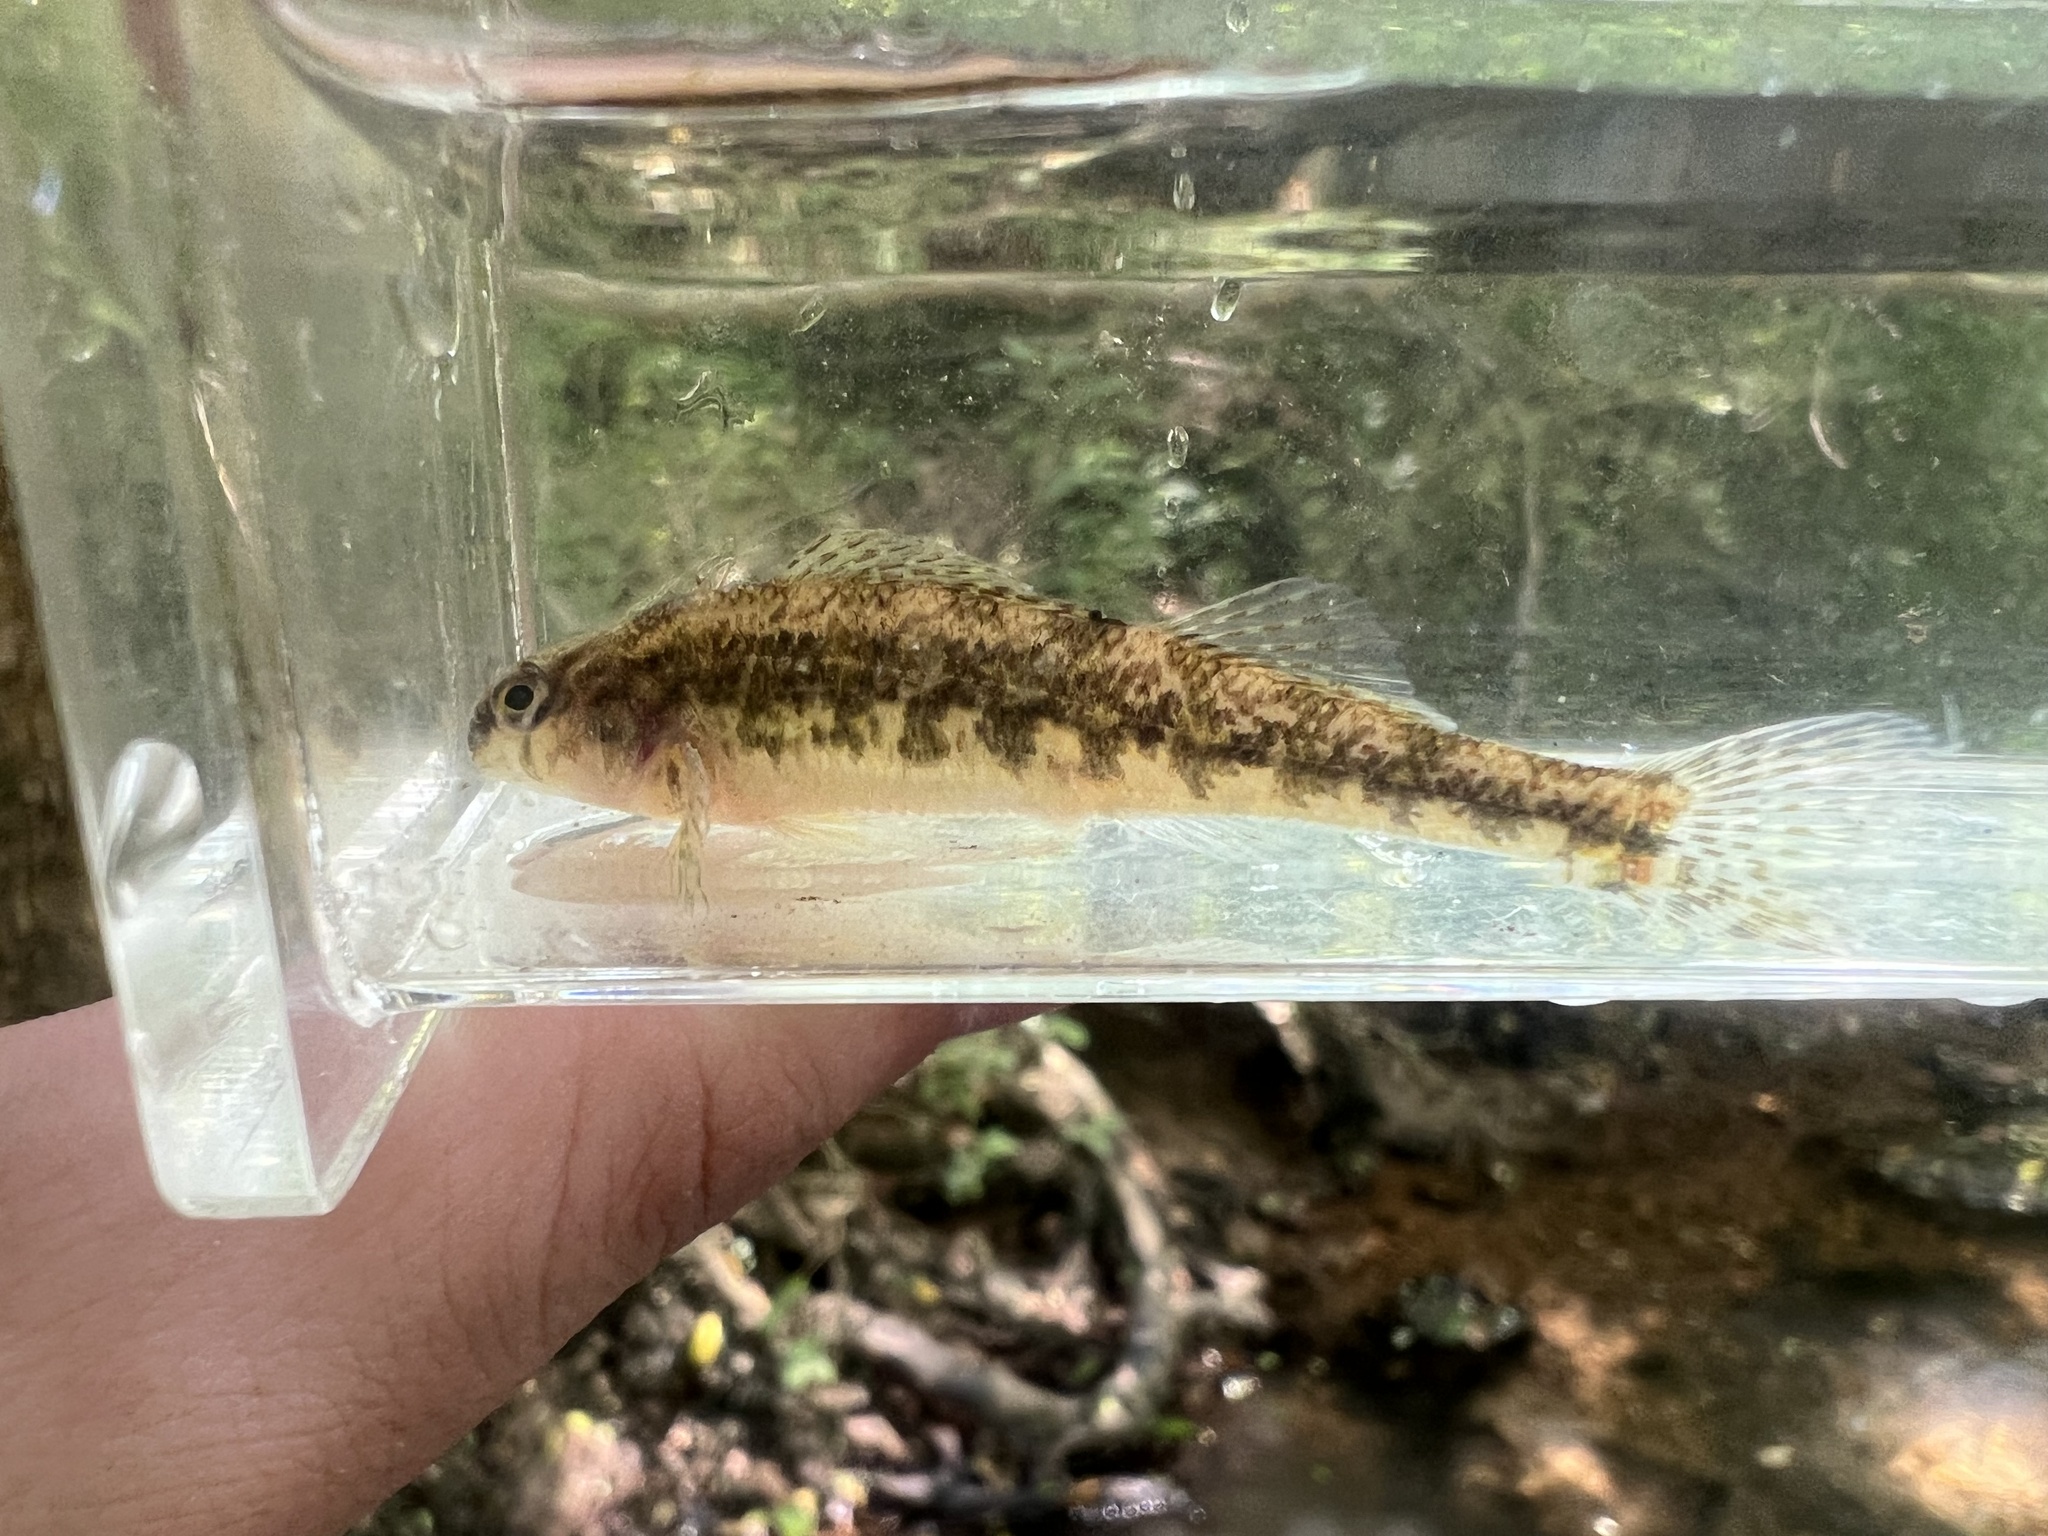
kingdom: Animalia
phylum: Chordata
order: Perciformes
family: Percidae
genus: Etheostoma
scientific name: Etheostoma duryi
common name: Blackside snubnose darter
